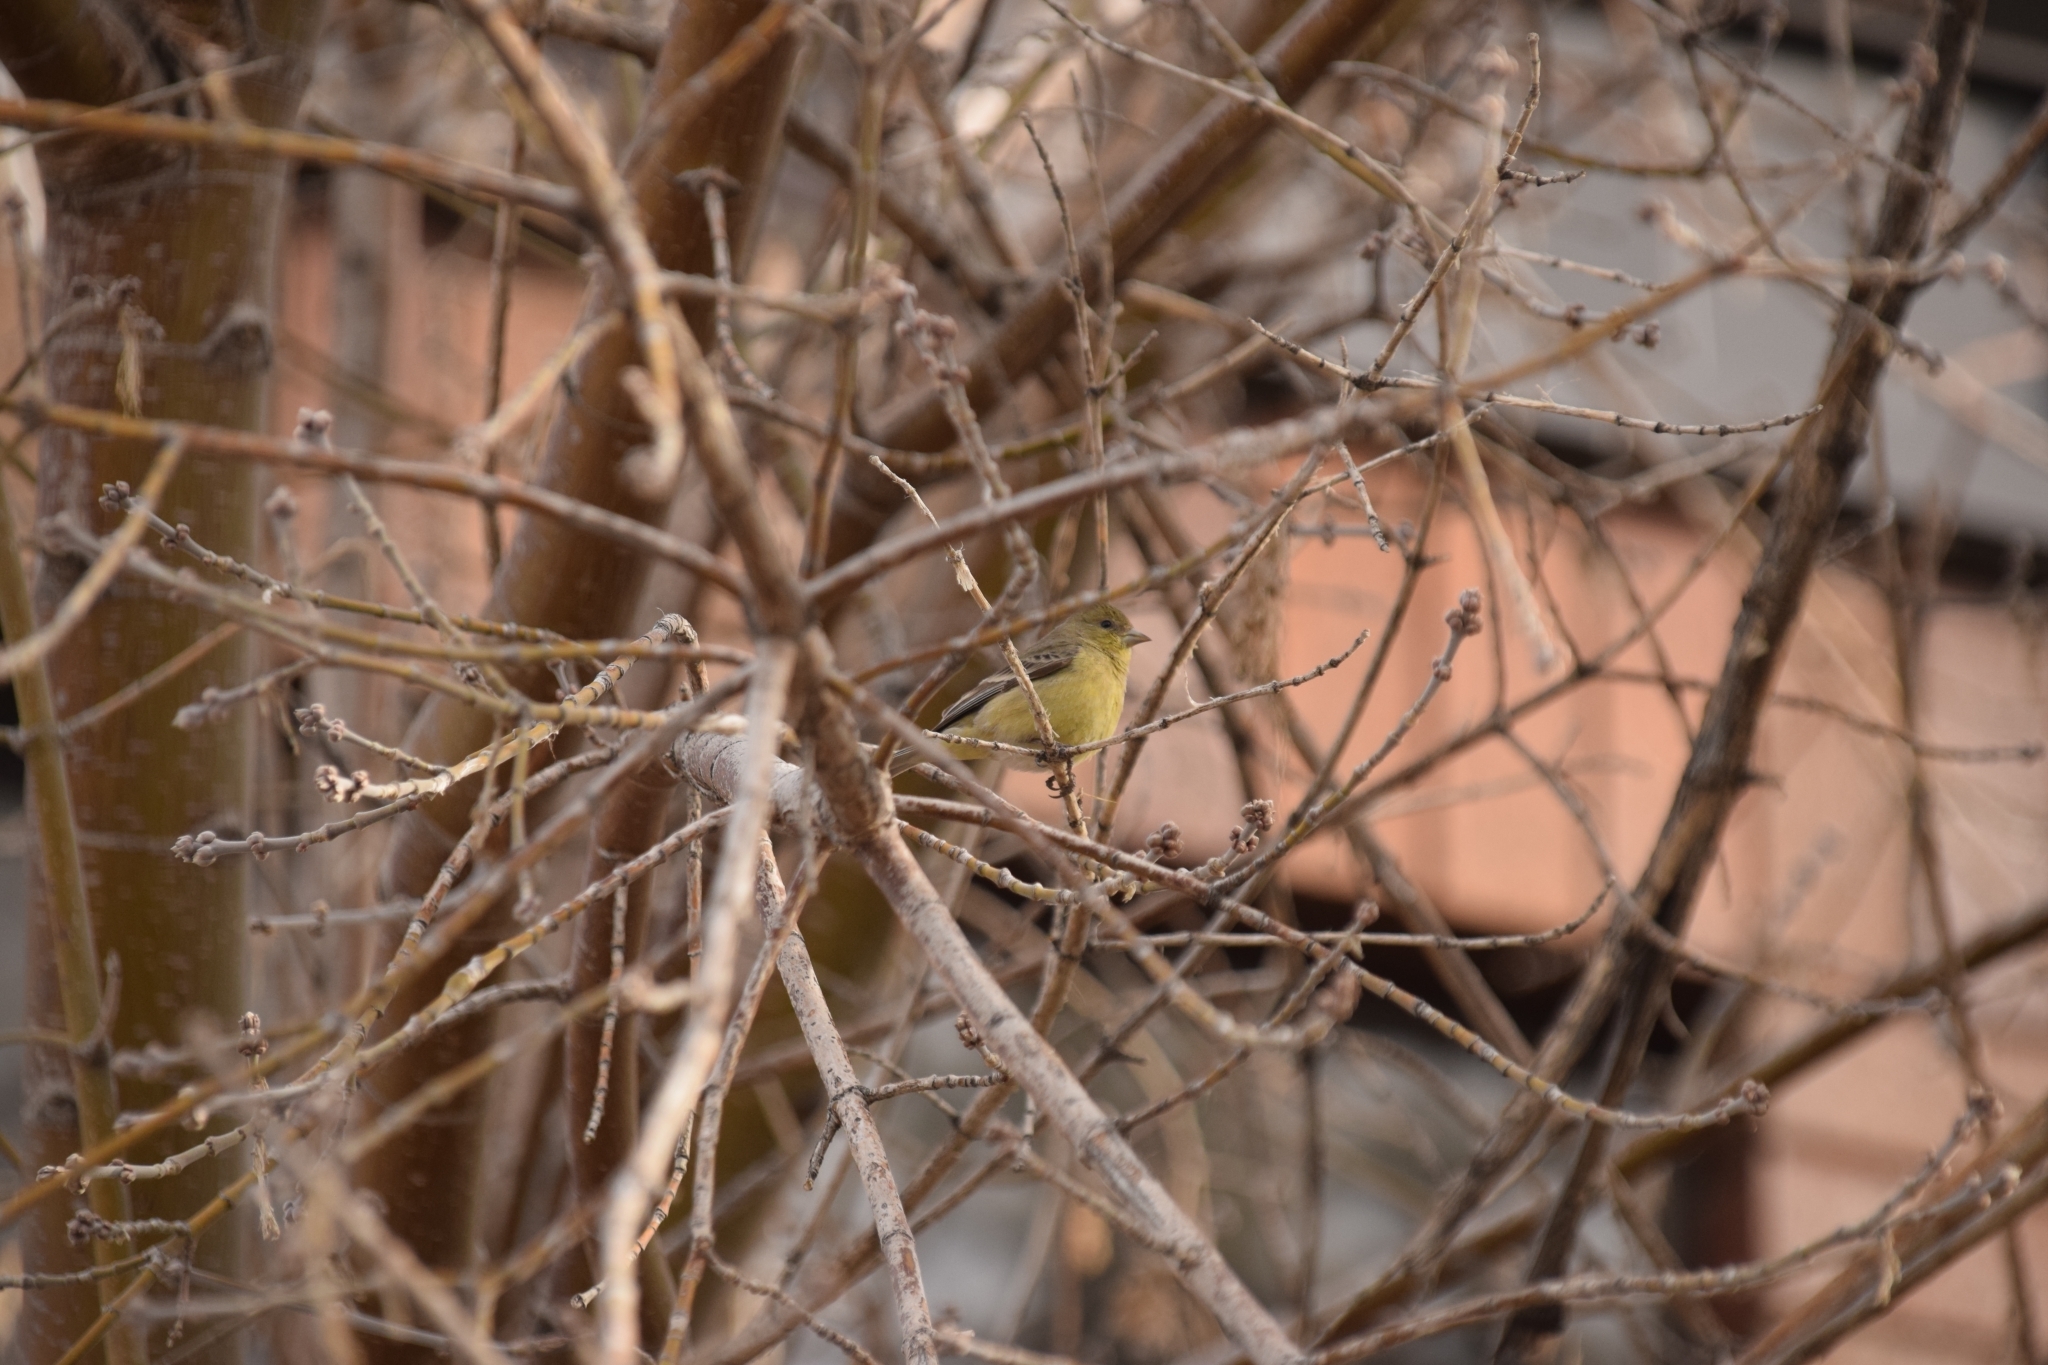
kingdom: Animalia
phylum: Chordata
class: Aves
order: Passeriformes
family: Fringillidae
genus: Spinus
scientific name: Spinus psaltria
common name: Lesser goldfinch
